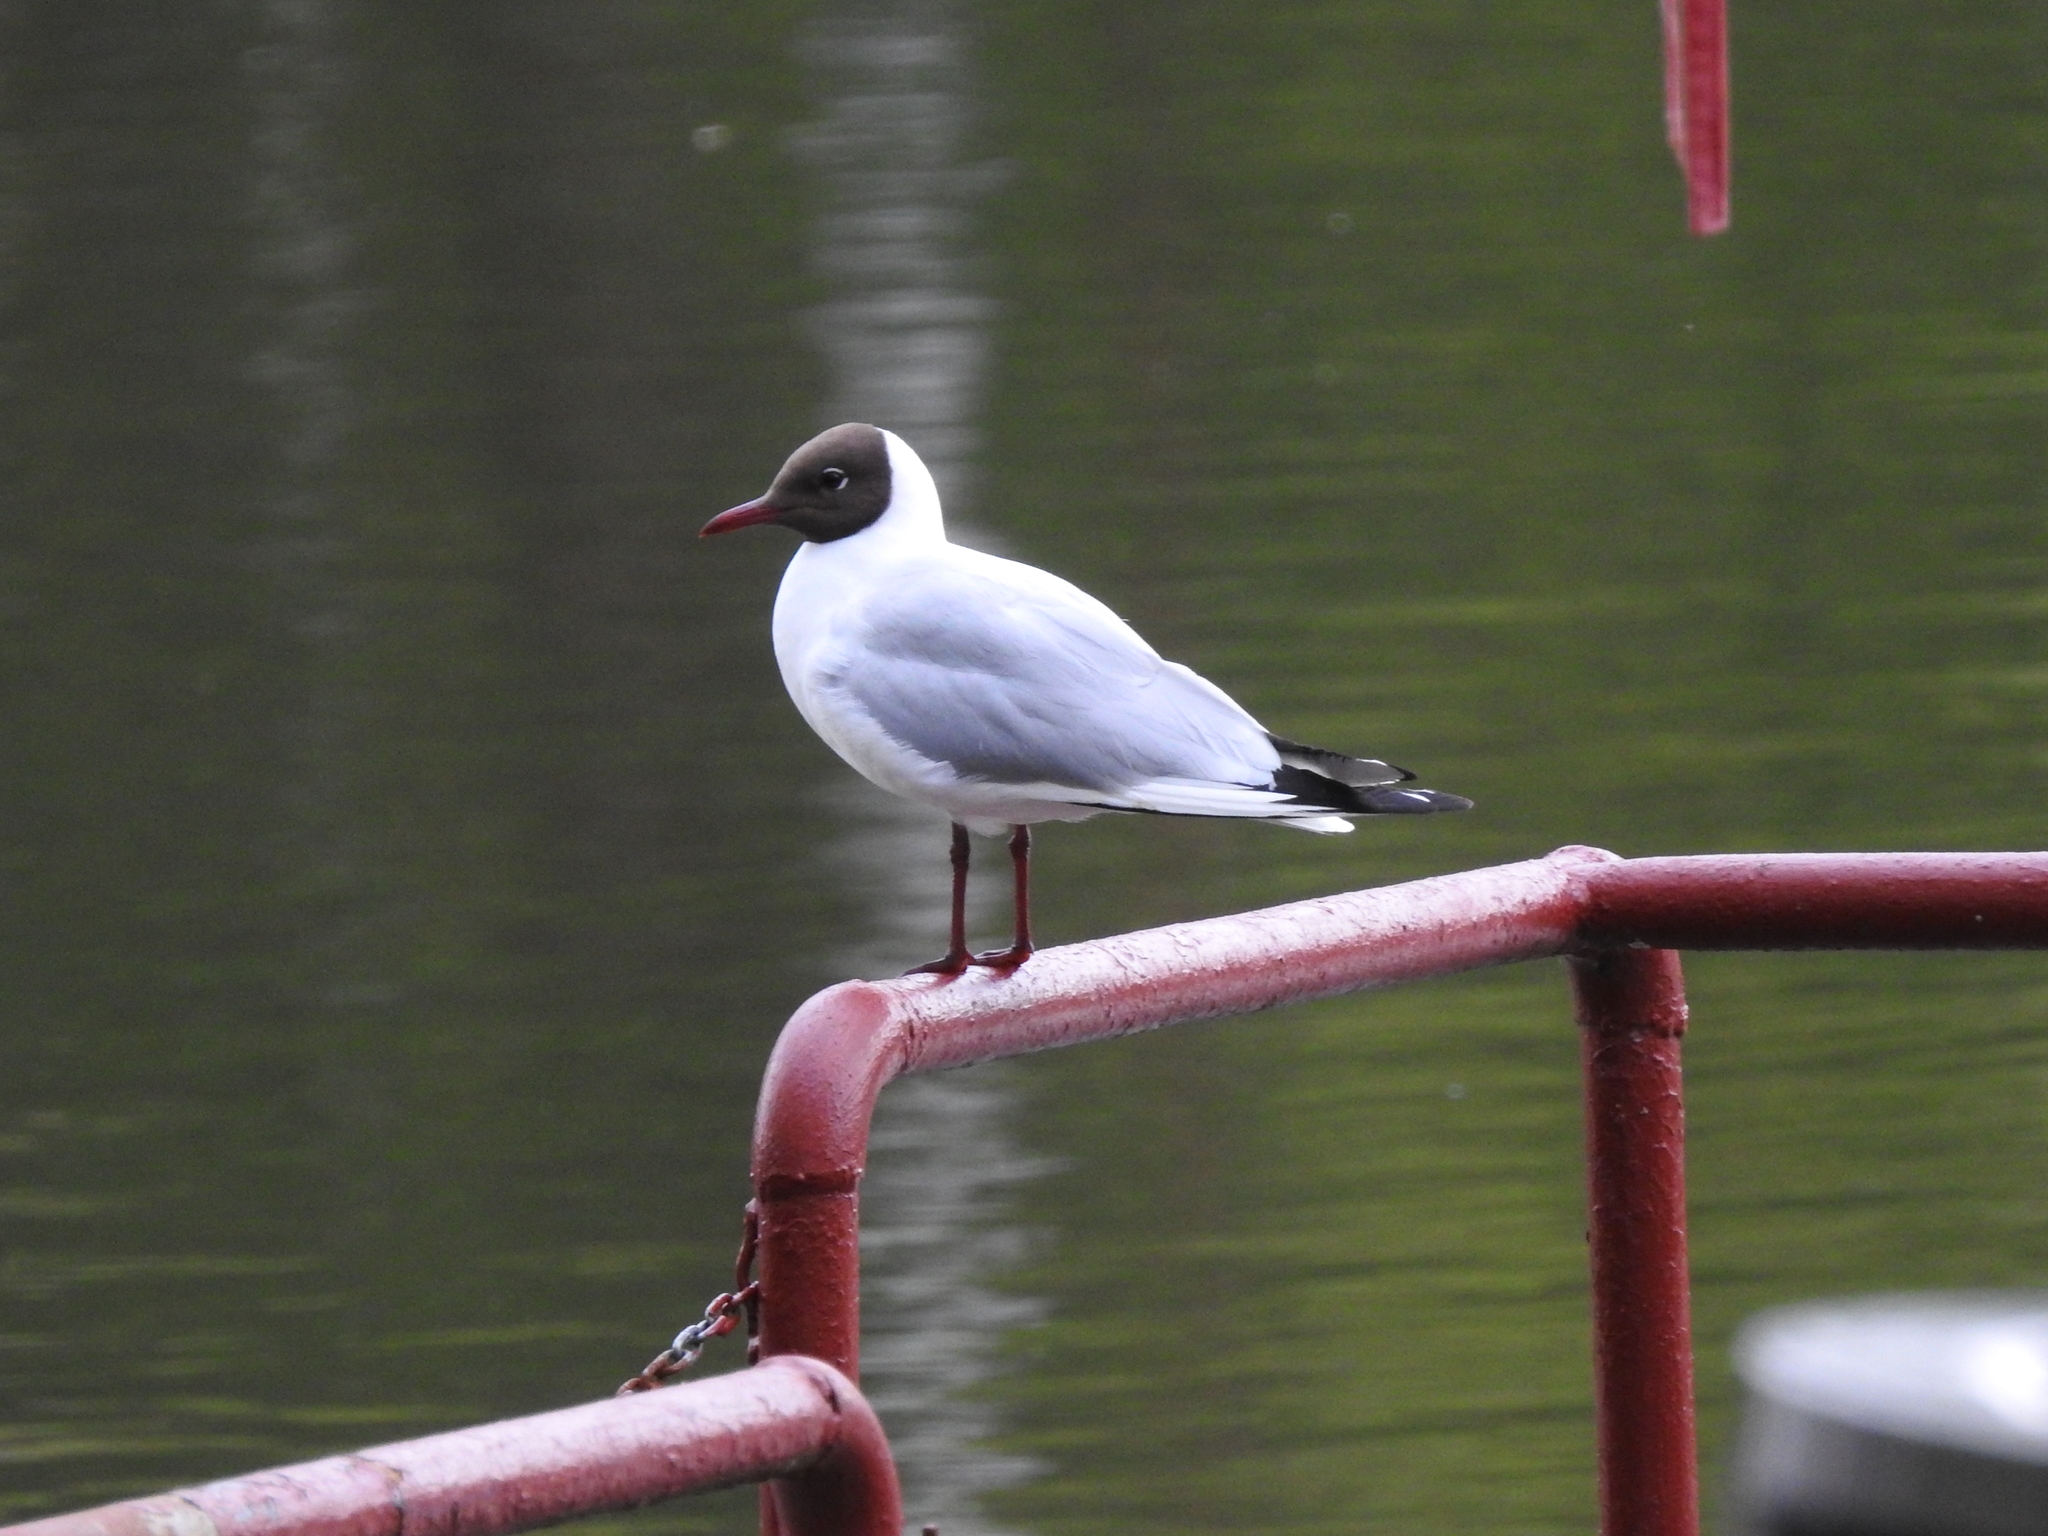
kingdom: Animalia
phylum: Chordata
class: Aves
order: Charadriiformes
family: Laridae
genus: Chroicocephalus
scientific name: Chroicocephalus ridibundus
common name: Black-headed gull
